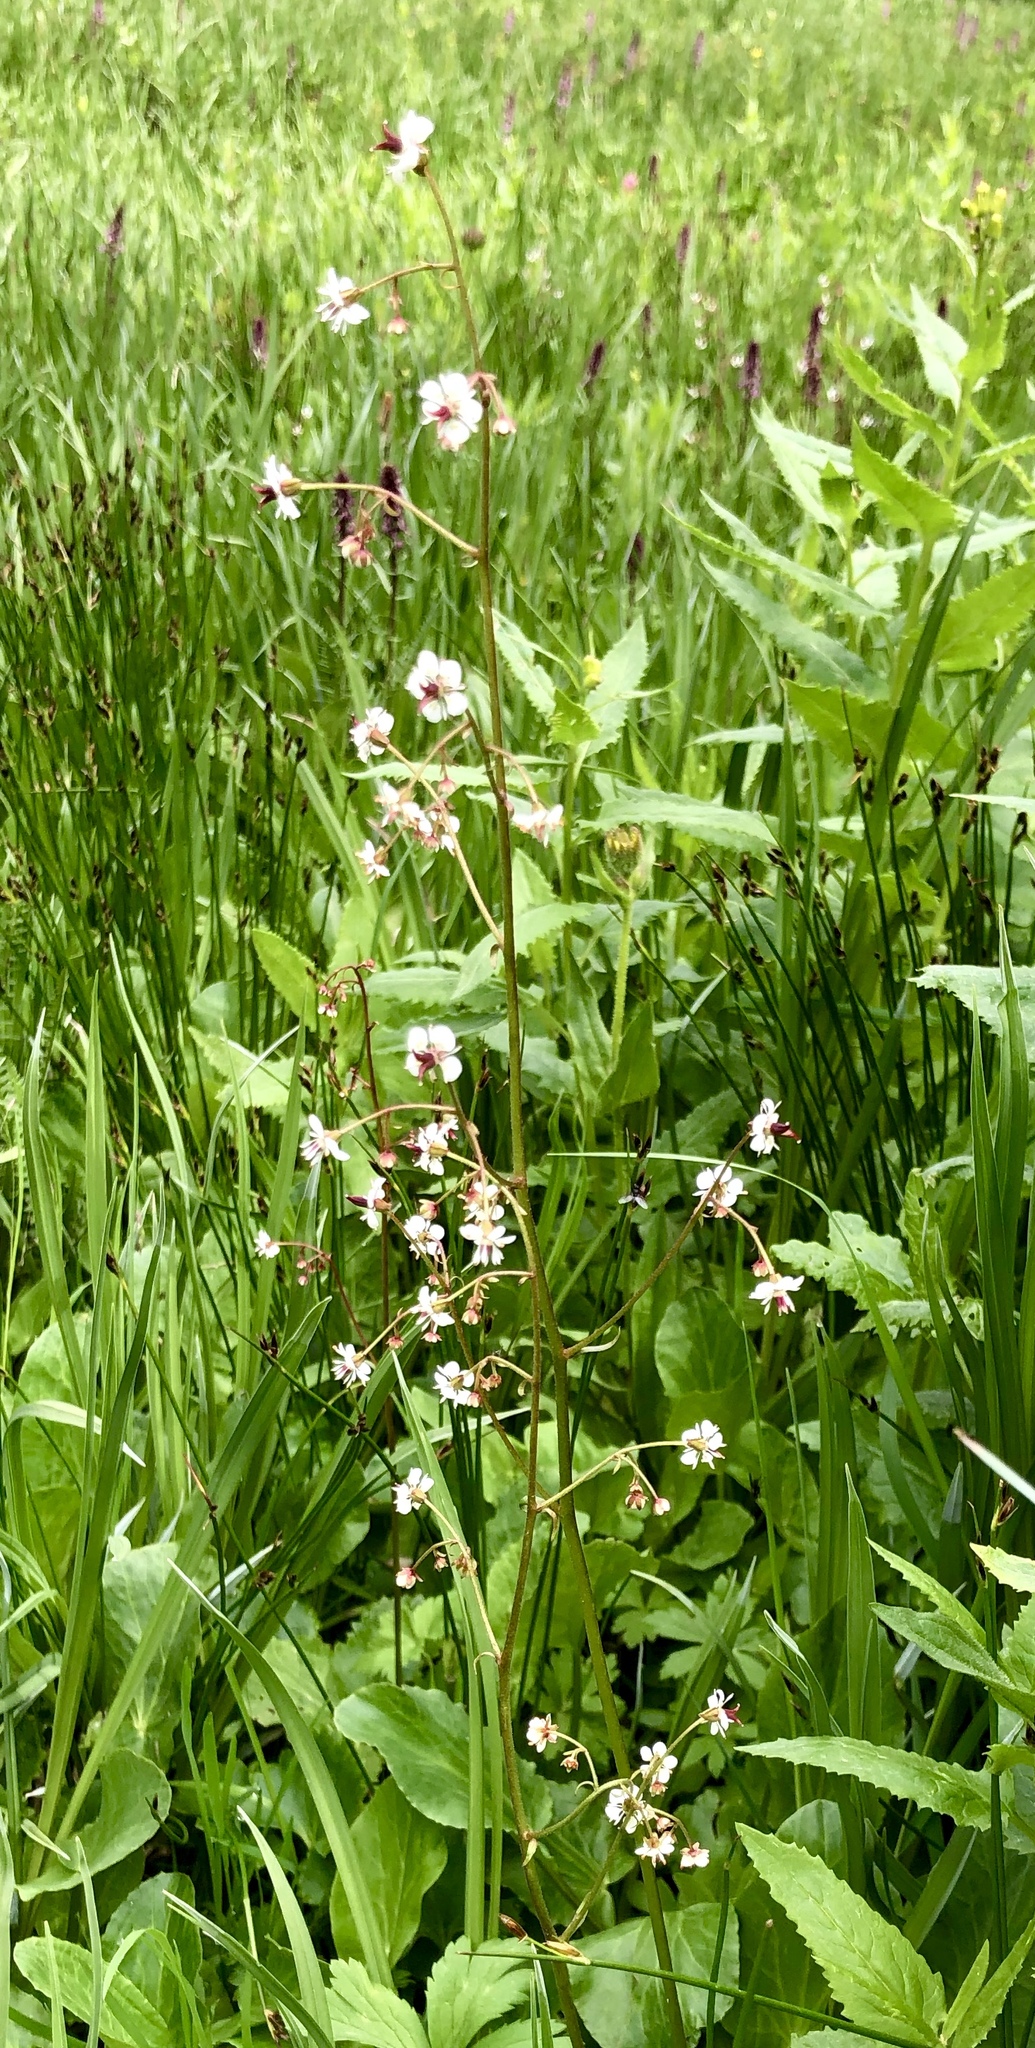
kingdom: Plantae
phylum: Tracheophyta
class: Magnoliopsida
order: Saxifragales
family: Saxifragaceae
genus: Micranthes
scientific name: Micranthes odontoloma
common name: Brook saxifrage
